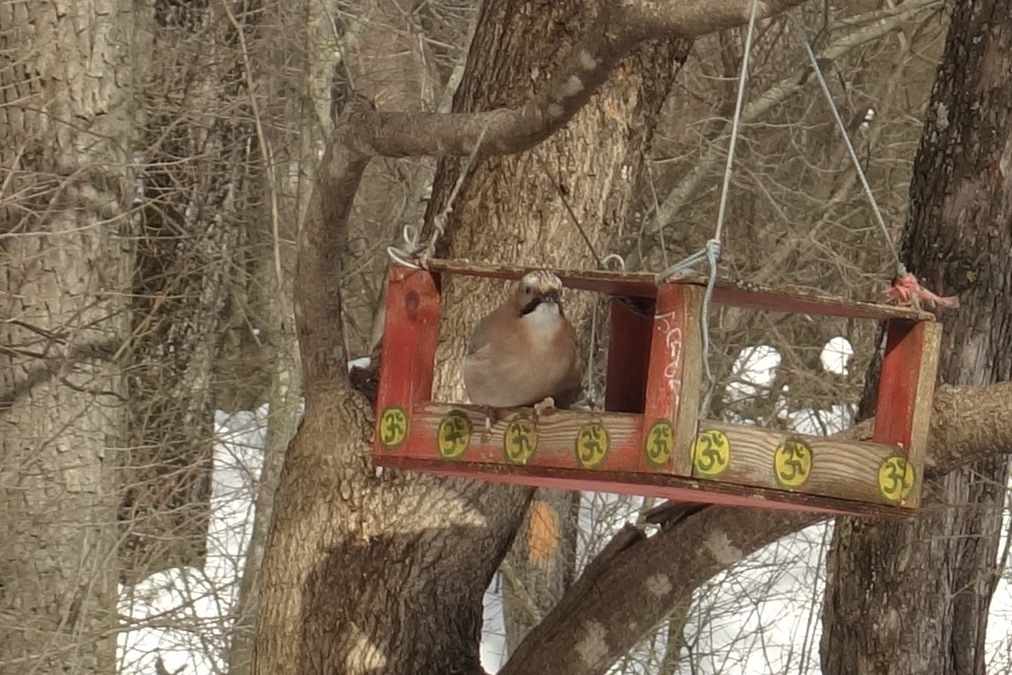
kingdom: Animalia
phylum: Chordata
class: Aves
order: Passeriformes
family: Corvidae
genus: Garrulus
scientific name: Garrulus glandarius
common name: Eurasian jay
